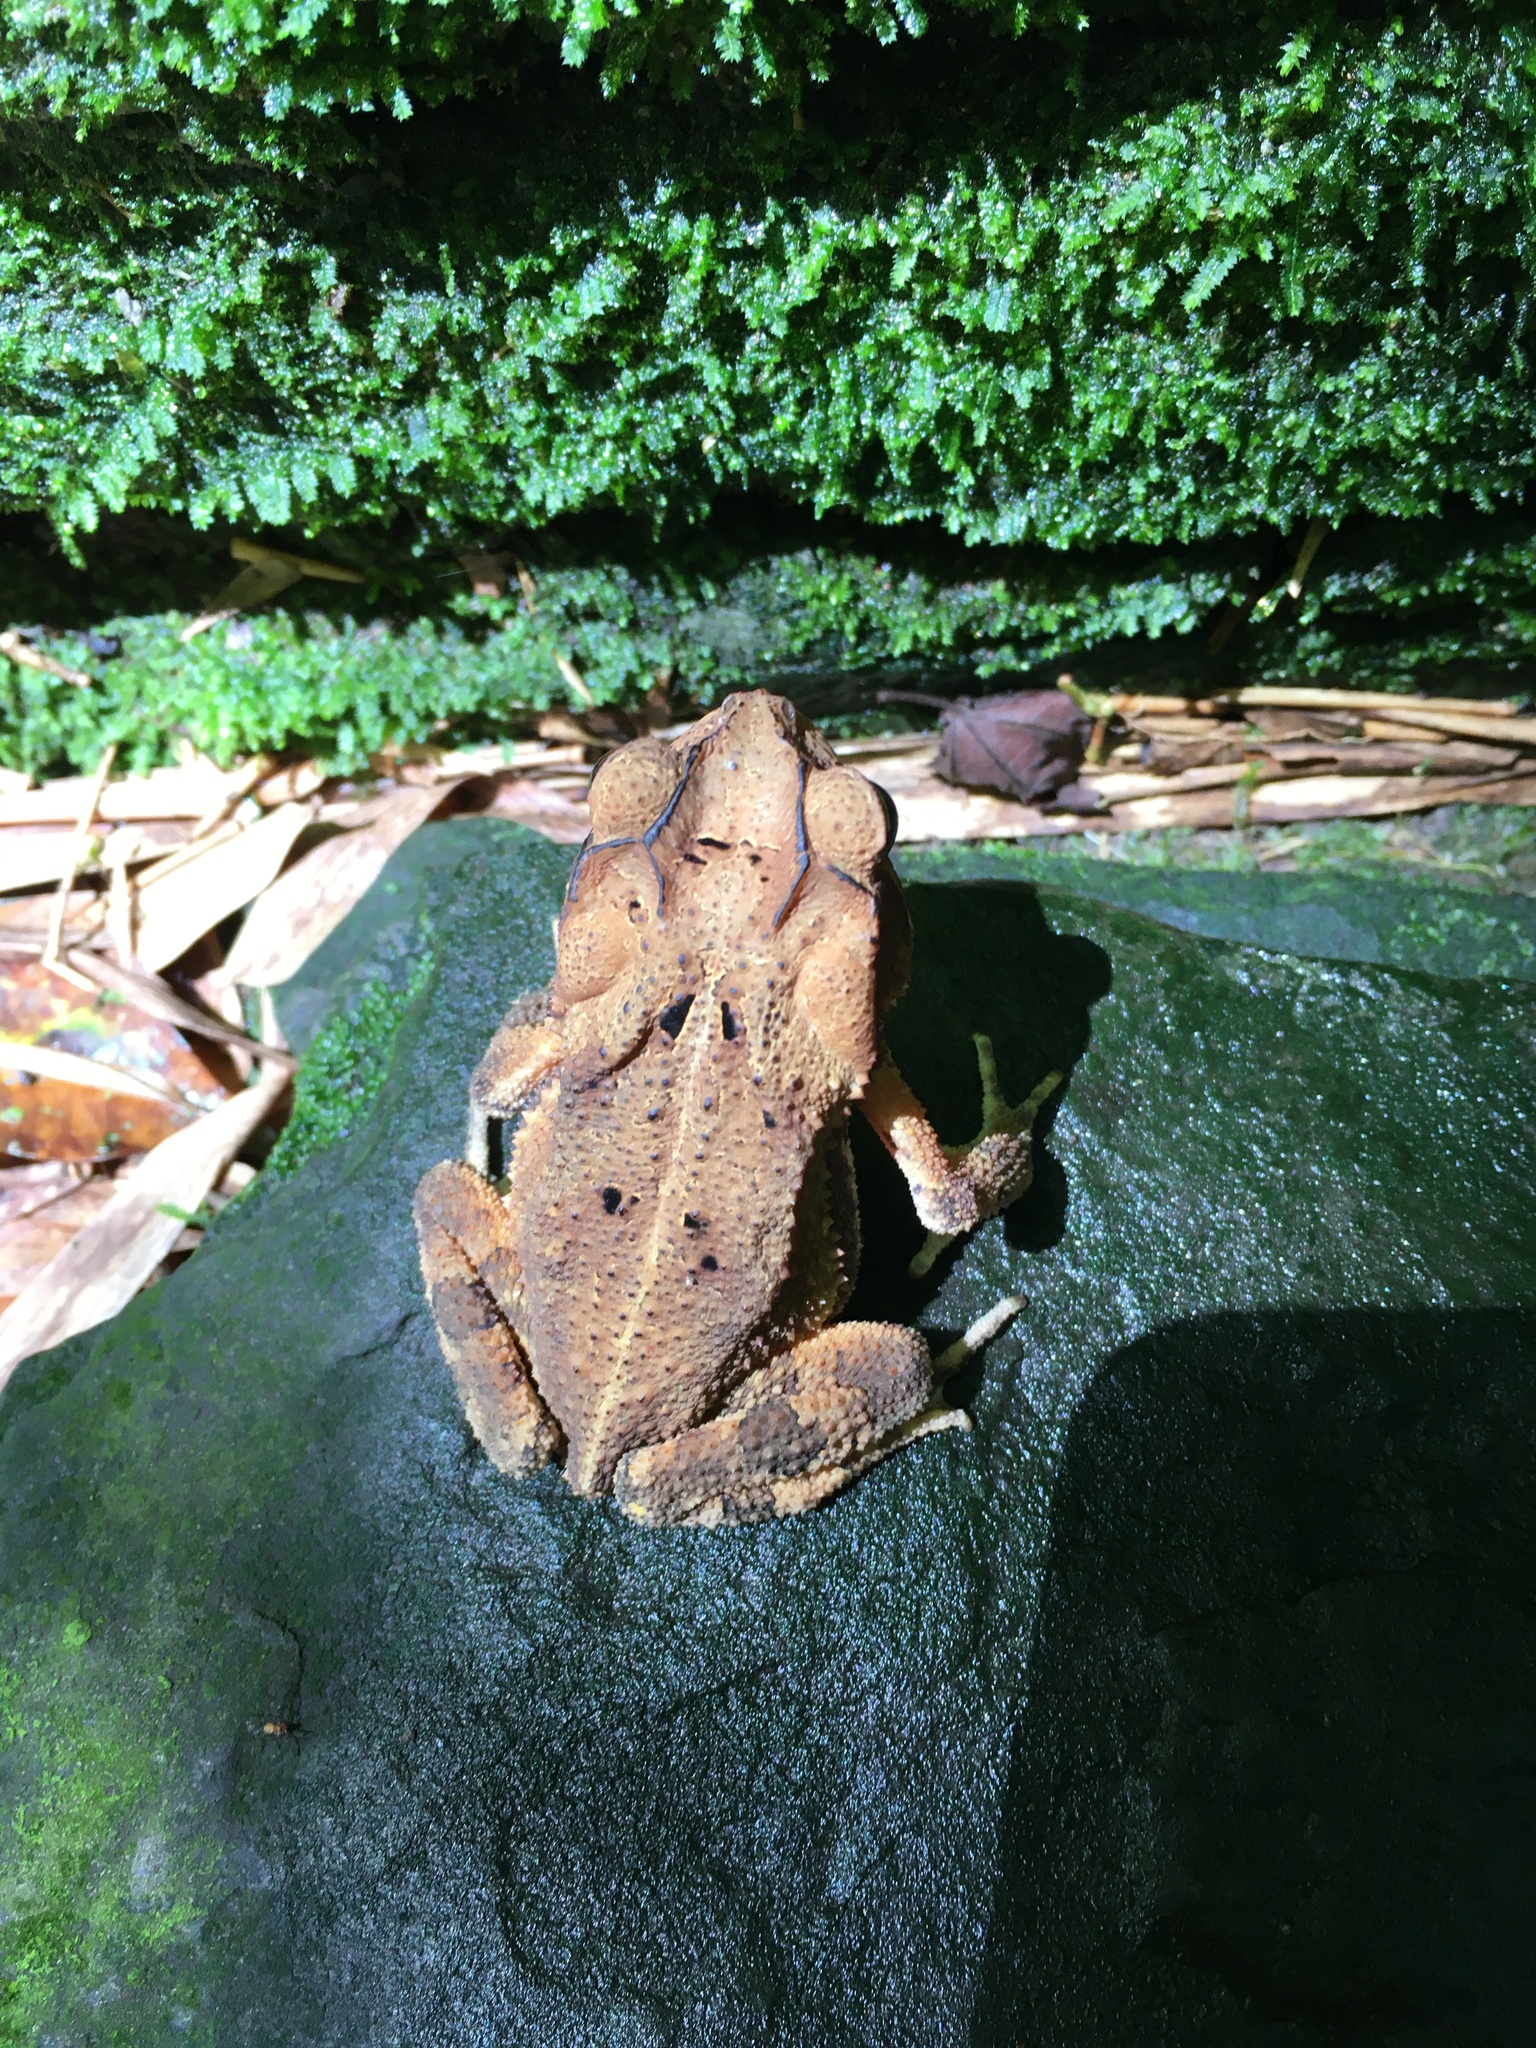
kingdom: Animalia
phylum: Chordata
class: Amphibia
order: Anura
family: Bufonidae
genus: Incilius
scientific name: Incilius nebulifer
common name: Gulf coast toad
